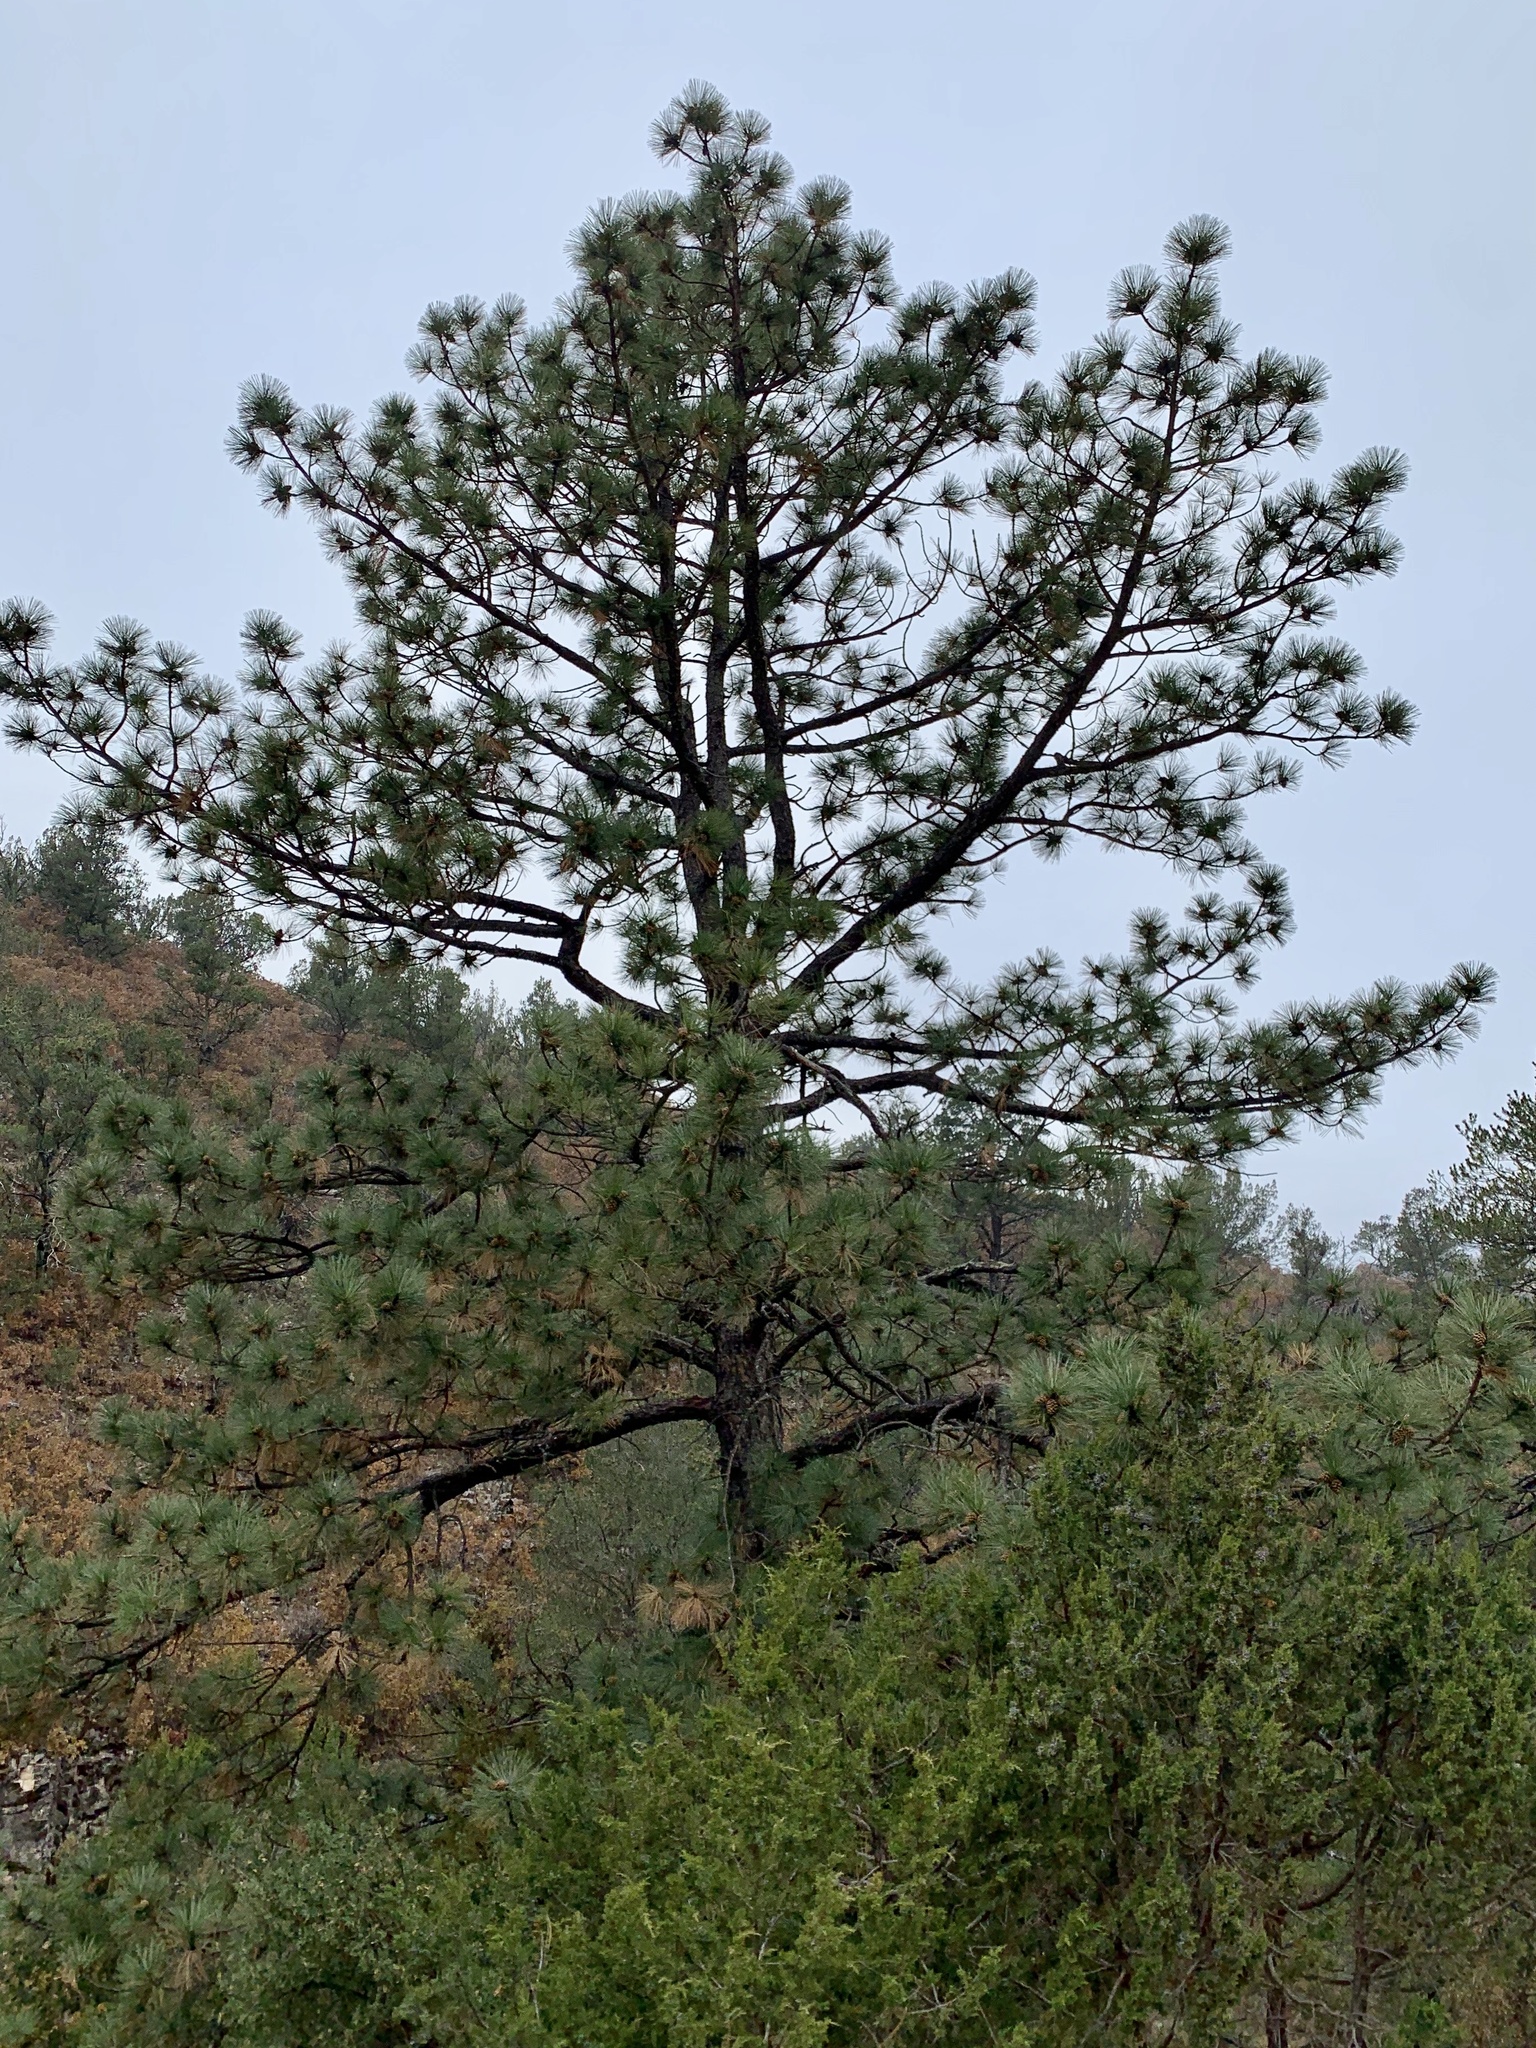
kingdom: Plantae
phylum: Tracheophyta
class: Pinopsida
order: Pinales
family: Pinaceae
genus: Pinus
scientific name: Pinus ponderosa
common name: Western yellow-pine
